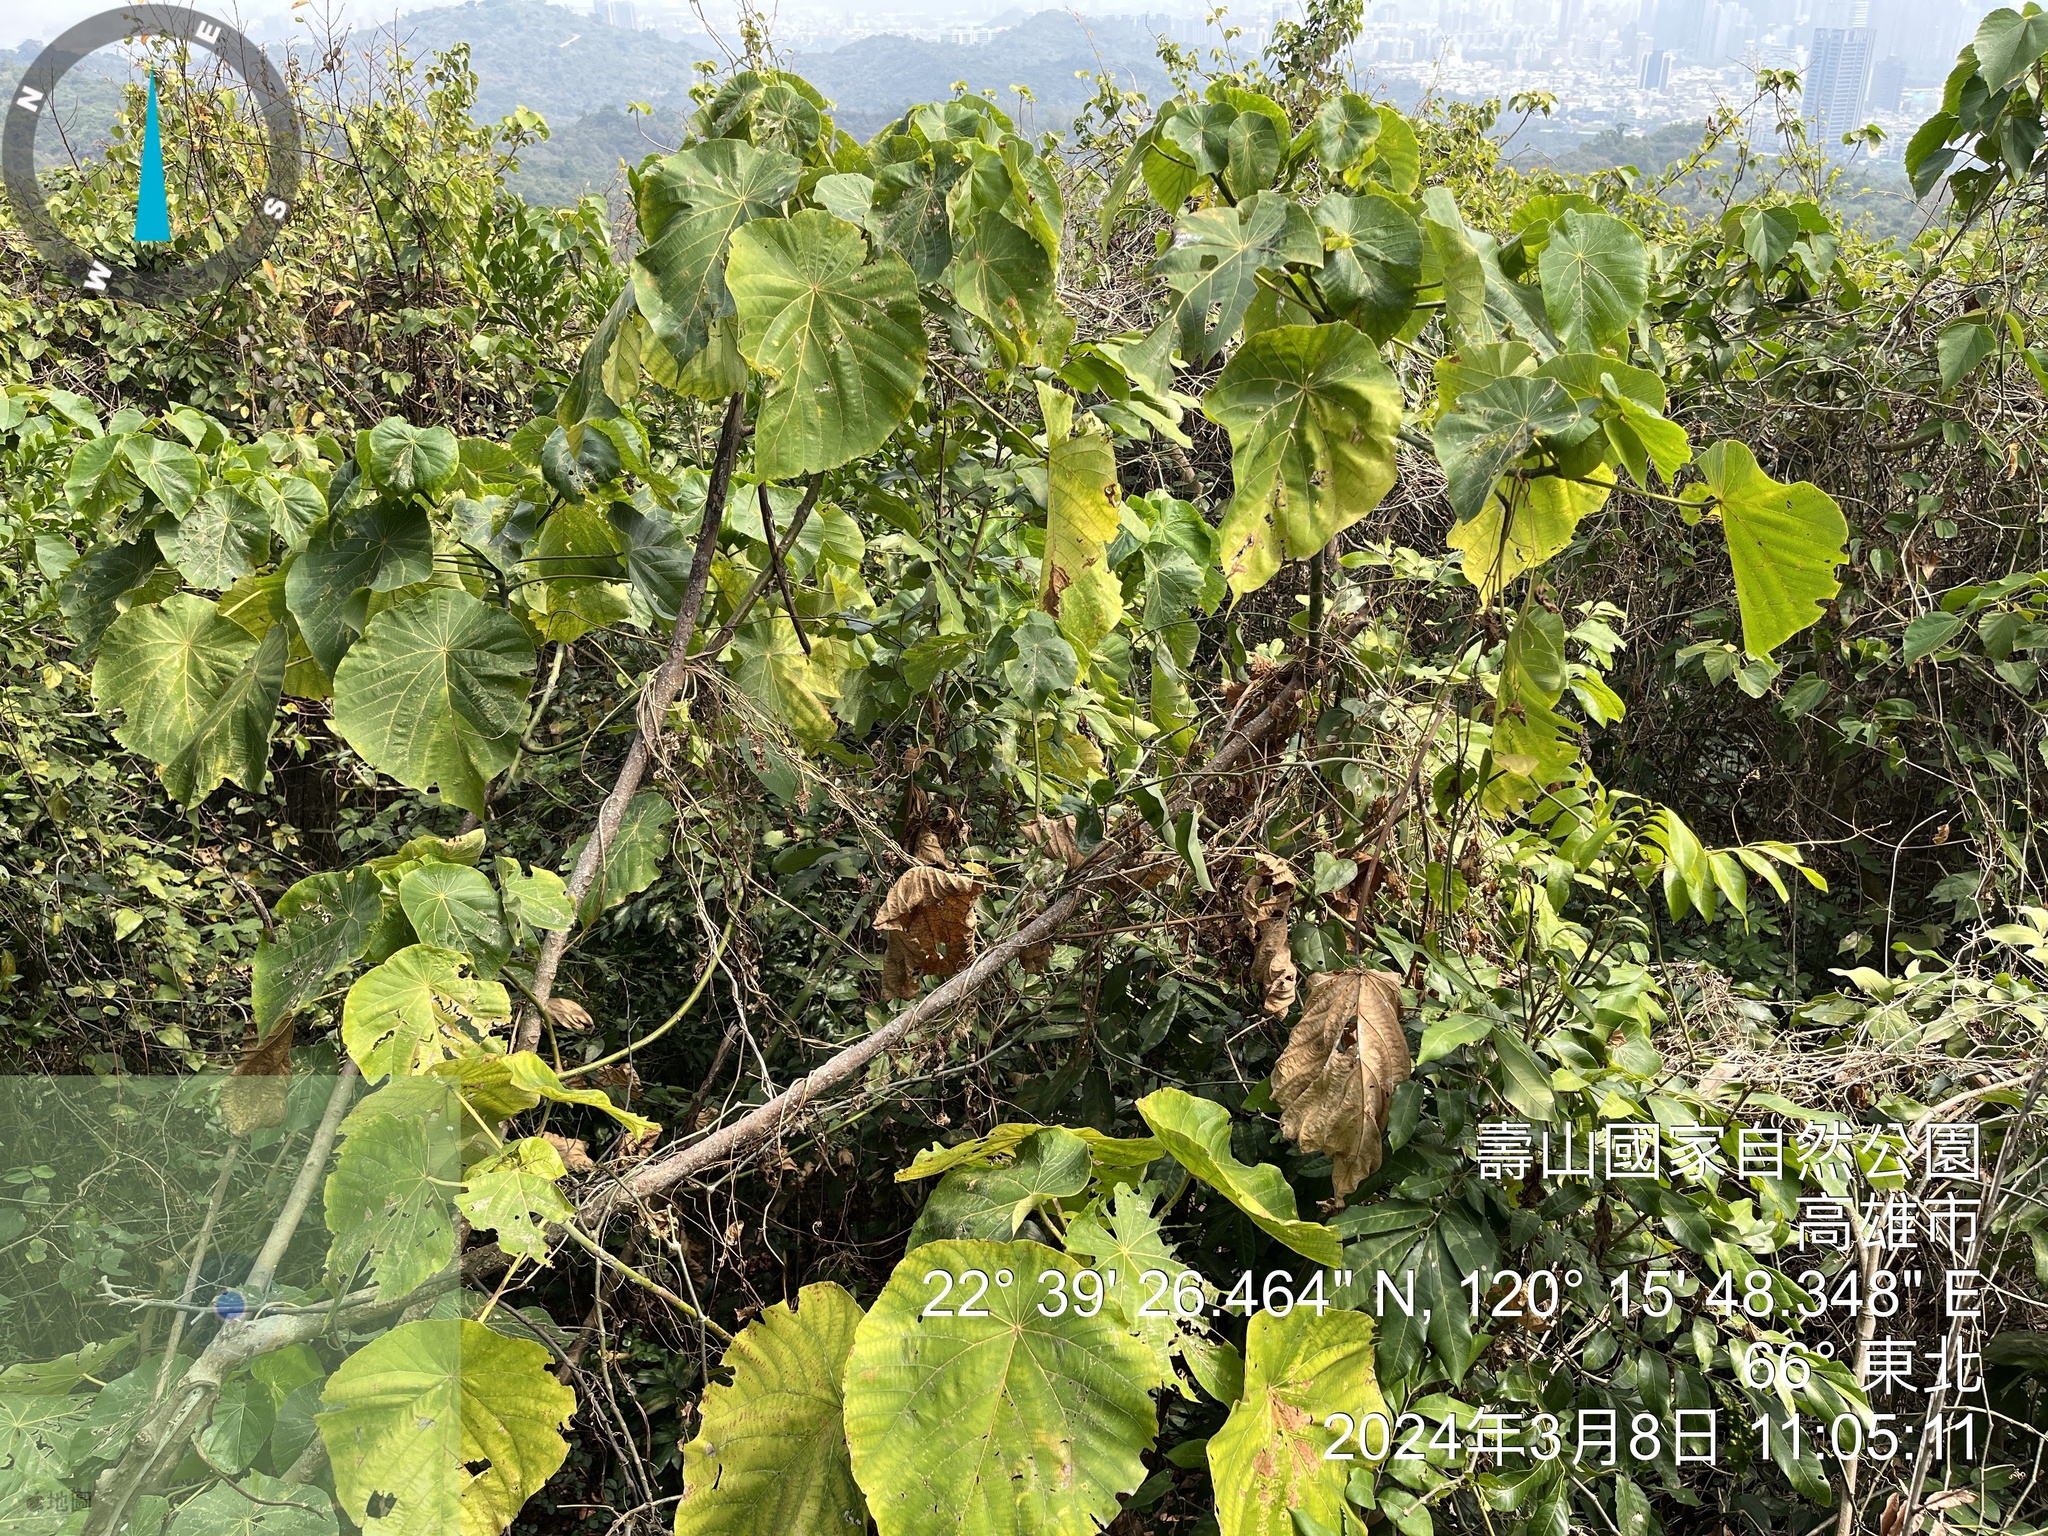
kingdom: Plantae
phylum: Tracheophyta
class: Magnoliopsida
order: Malpighiales
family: Euphorbiaceae
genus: Macaranga
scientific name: Macaranga tanarius
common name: Parasol leaf tree
